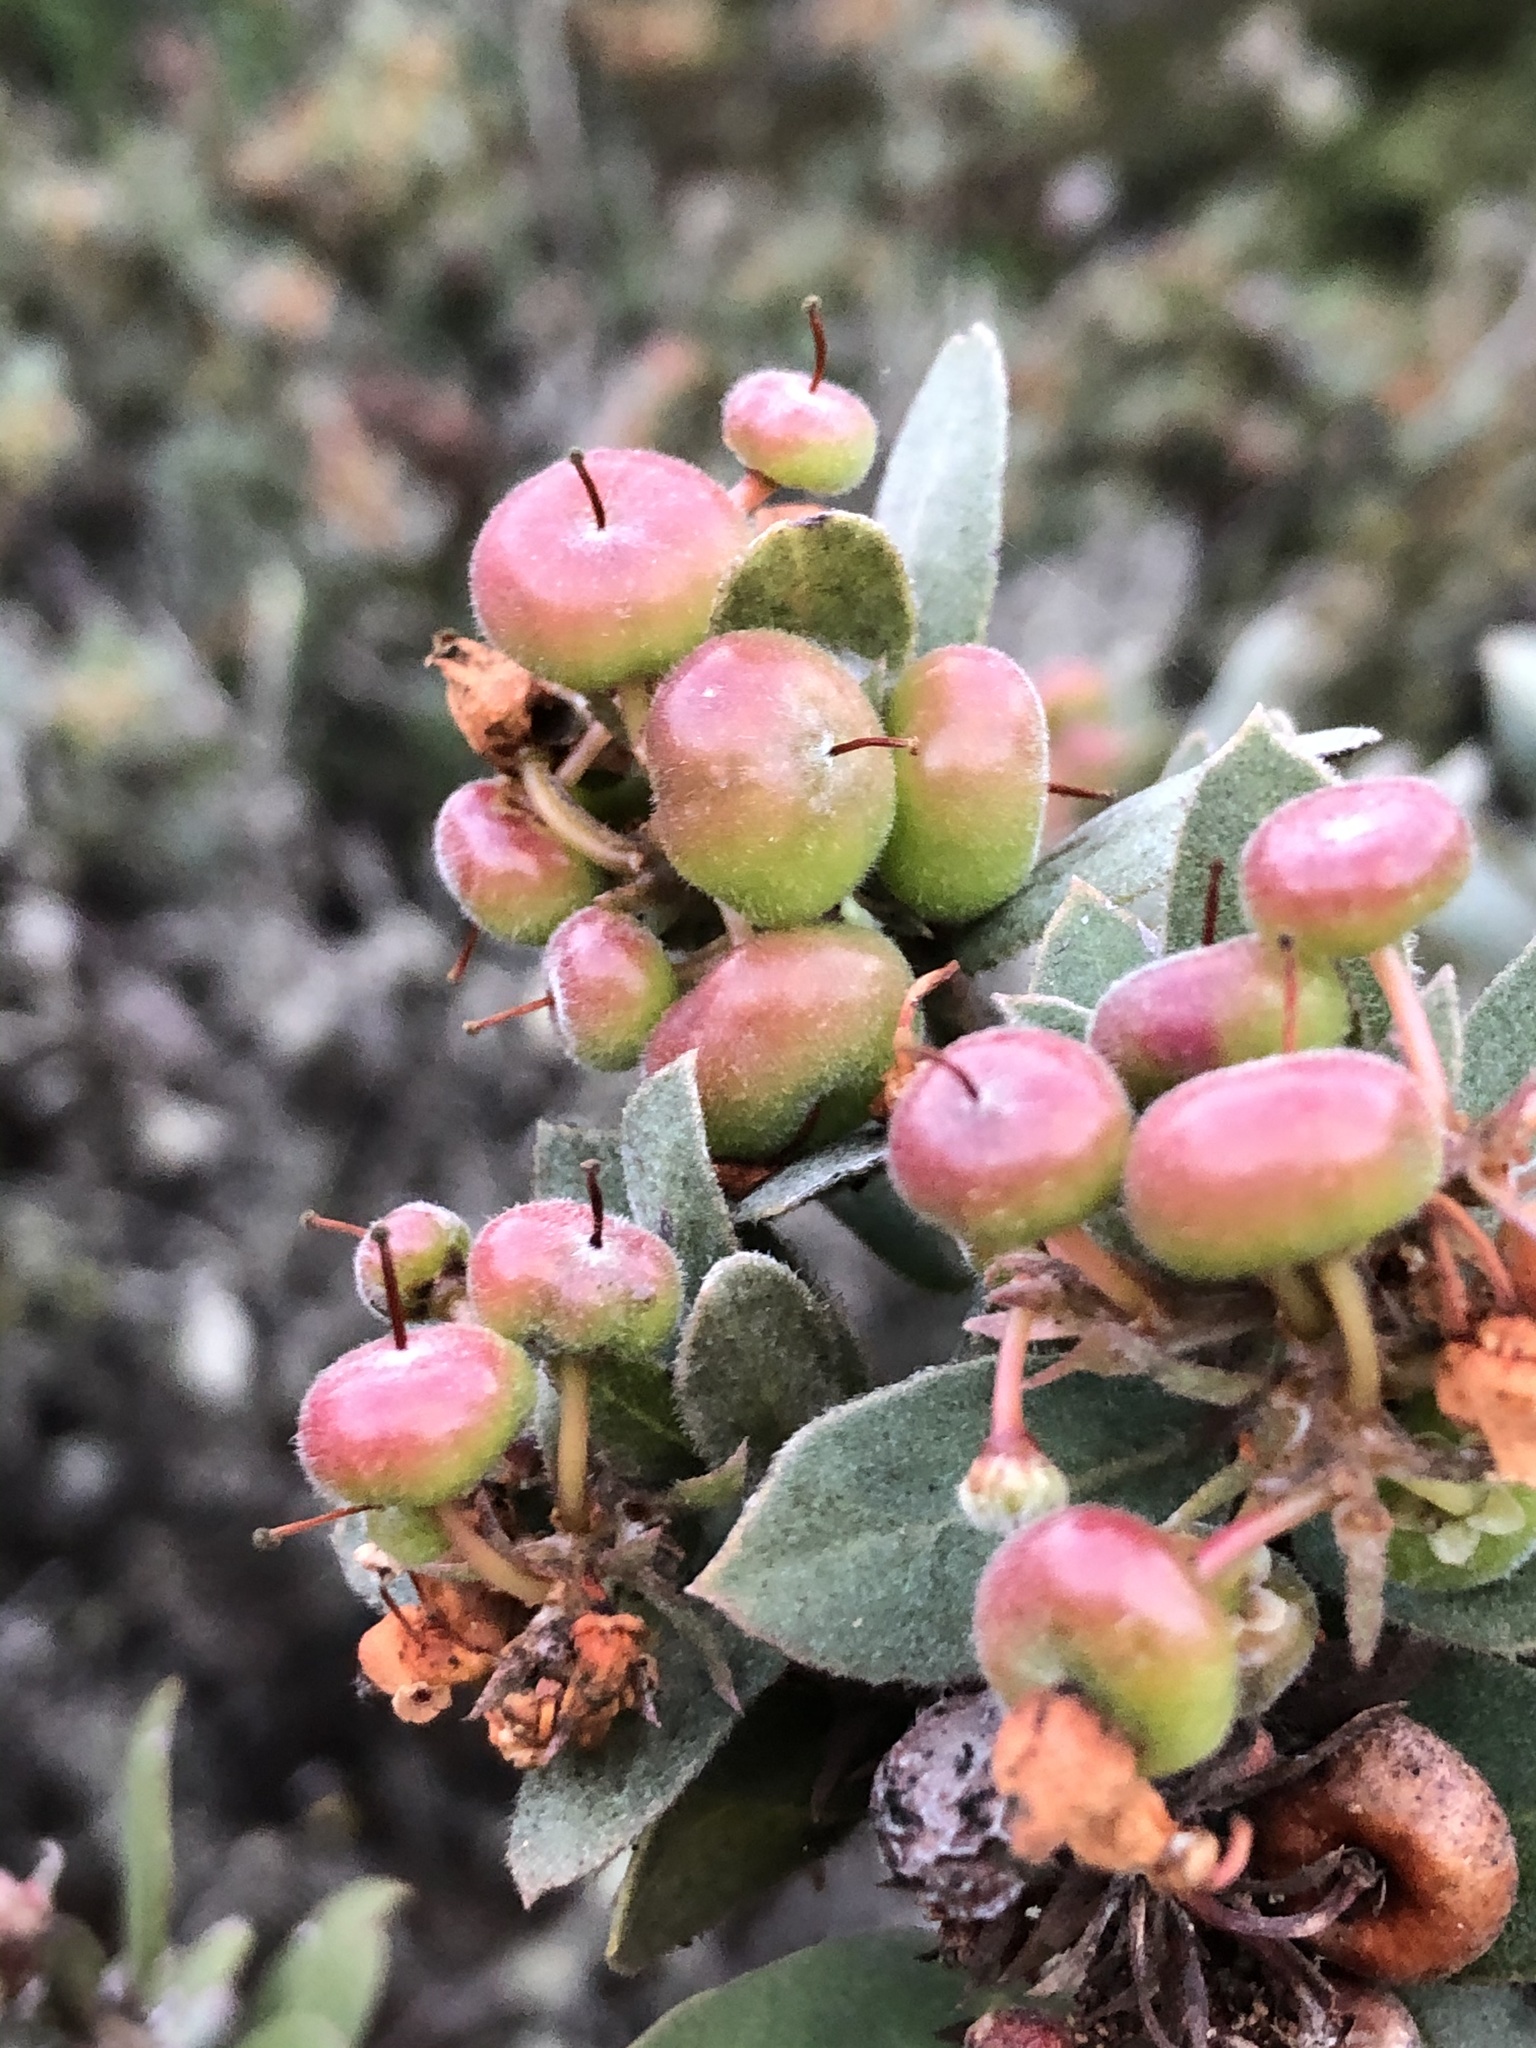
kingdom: Plantae
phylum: Tracheophyta
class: Magnoliopsida
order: Ericales
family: Ericaceae
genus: Arctostaphylos
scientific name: Arctostaphylos morroensis
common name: Morro manzanita
